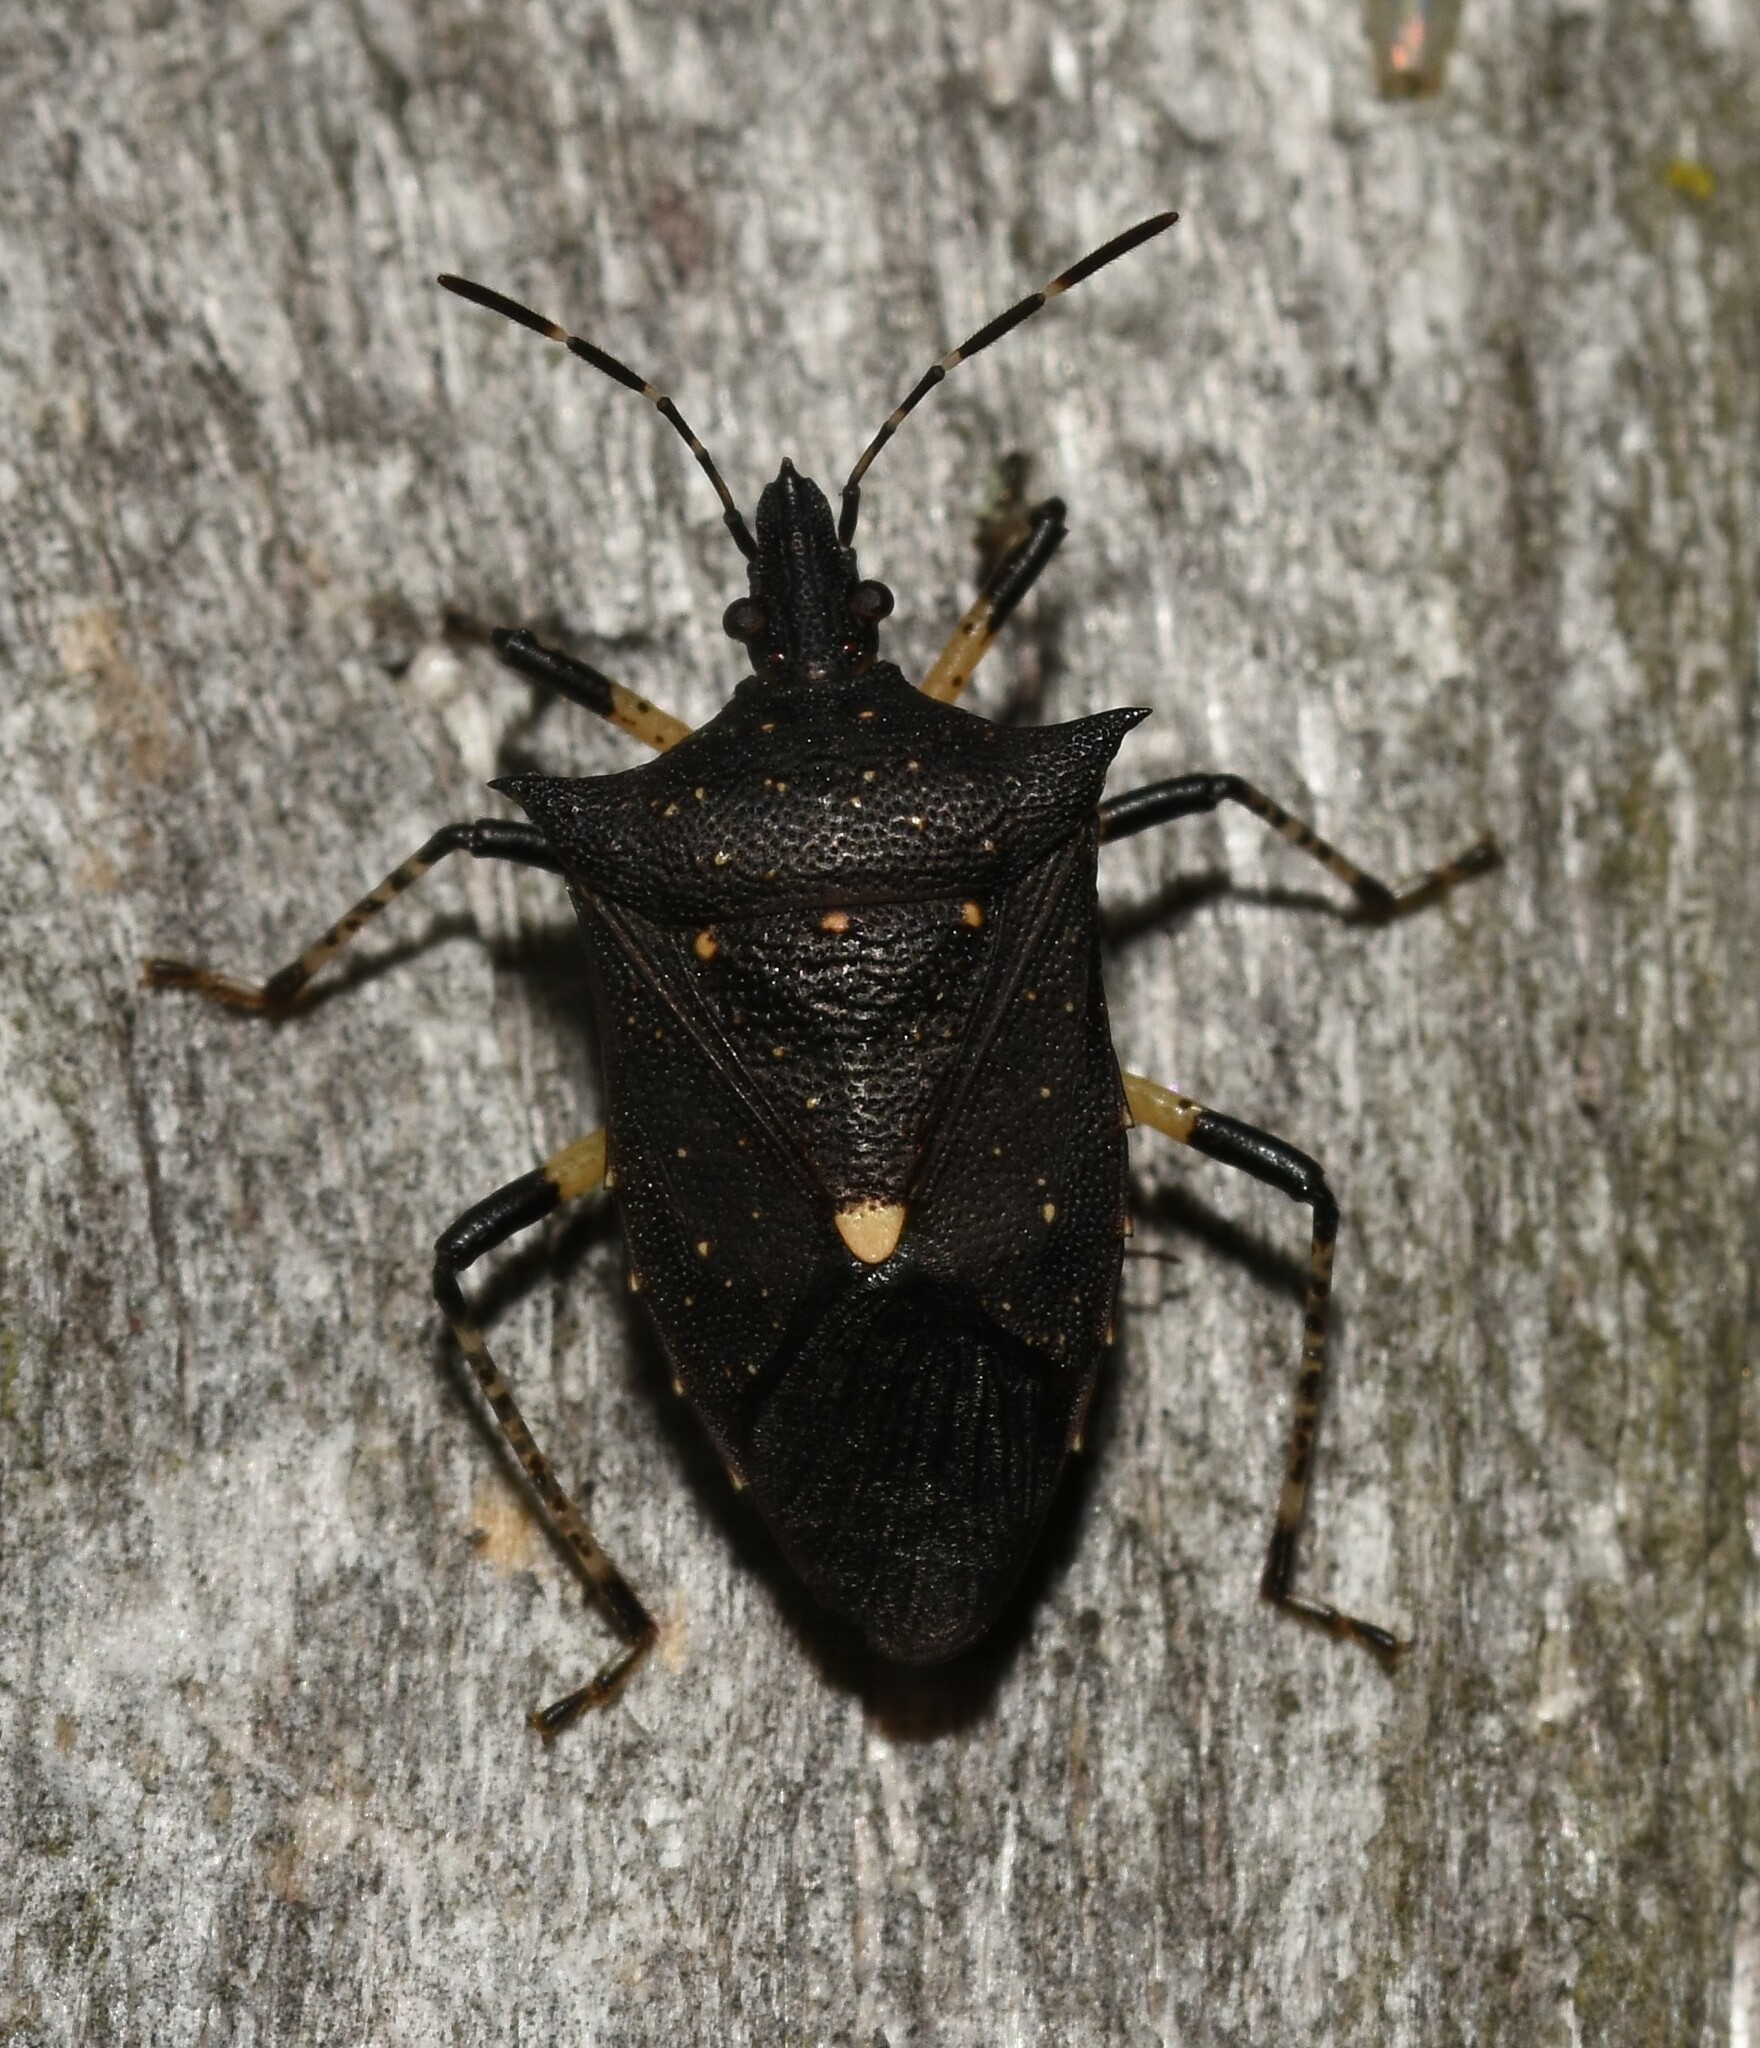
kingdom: Animalia
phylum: Arthropoda
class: Insecta
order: Hemiptera
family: Pentatomidae
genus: Proxys
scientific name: Proxys punctulatus
